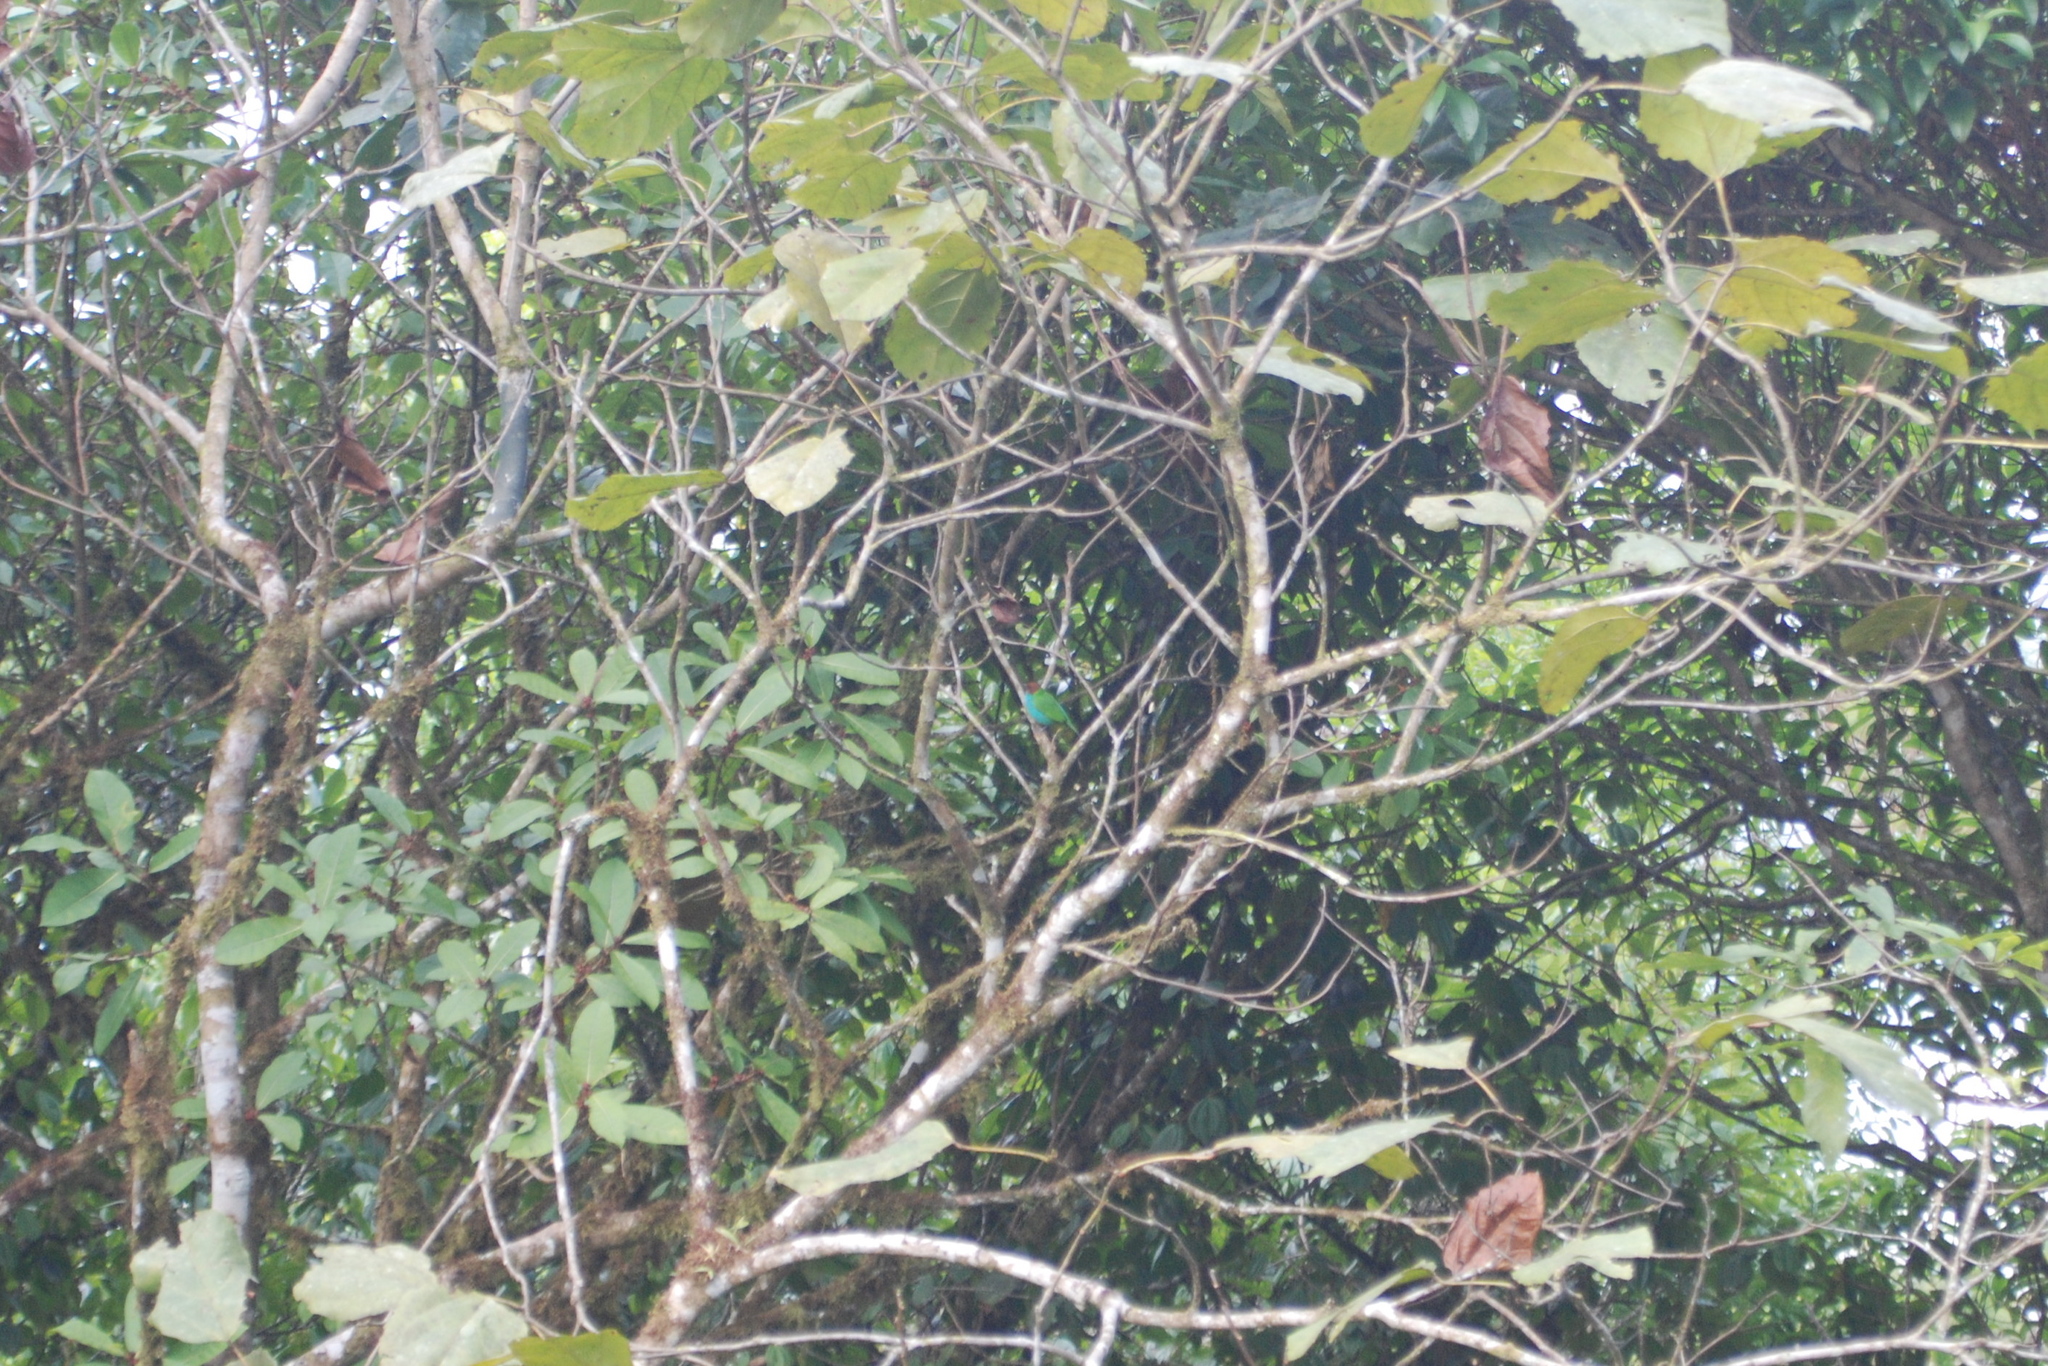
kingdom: Animalia
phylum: Chordata
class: Aves
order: Passeriformes
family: Thraupidae
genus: Tangara
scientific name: Tangara gyrola
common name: Bay-headed tanager
